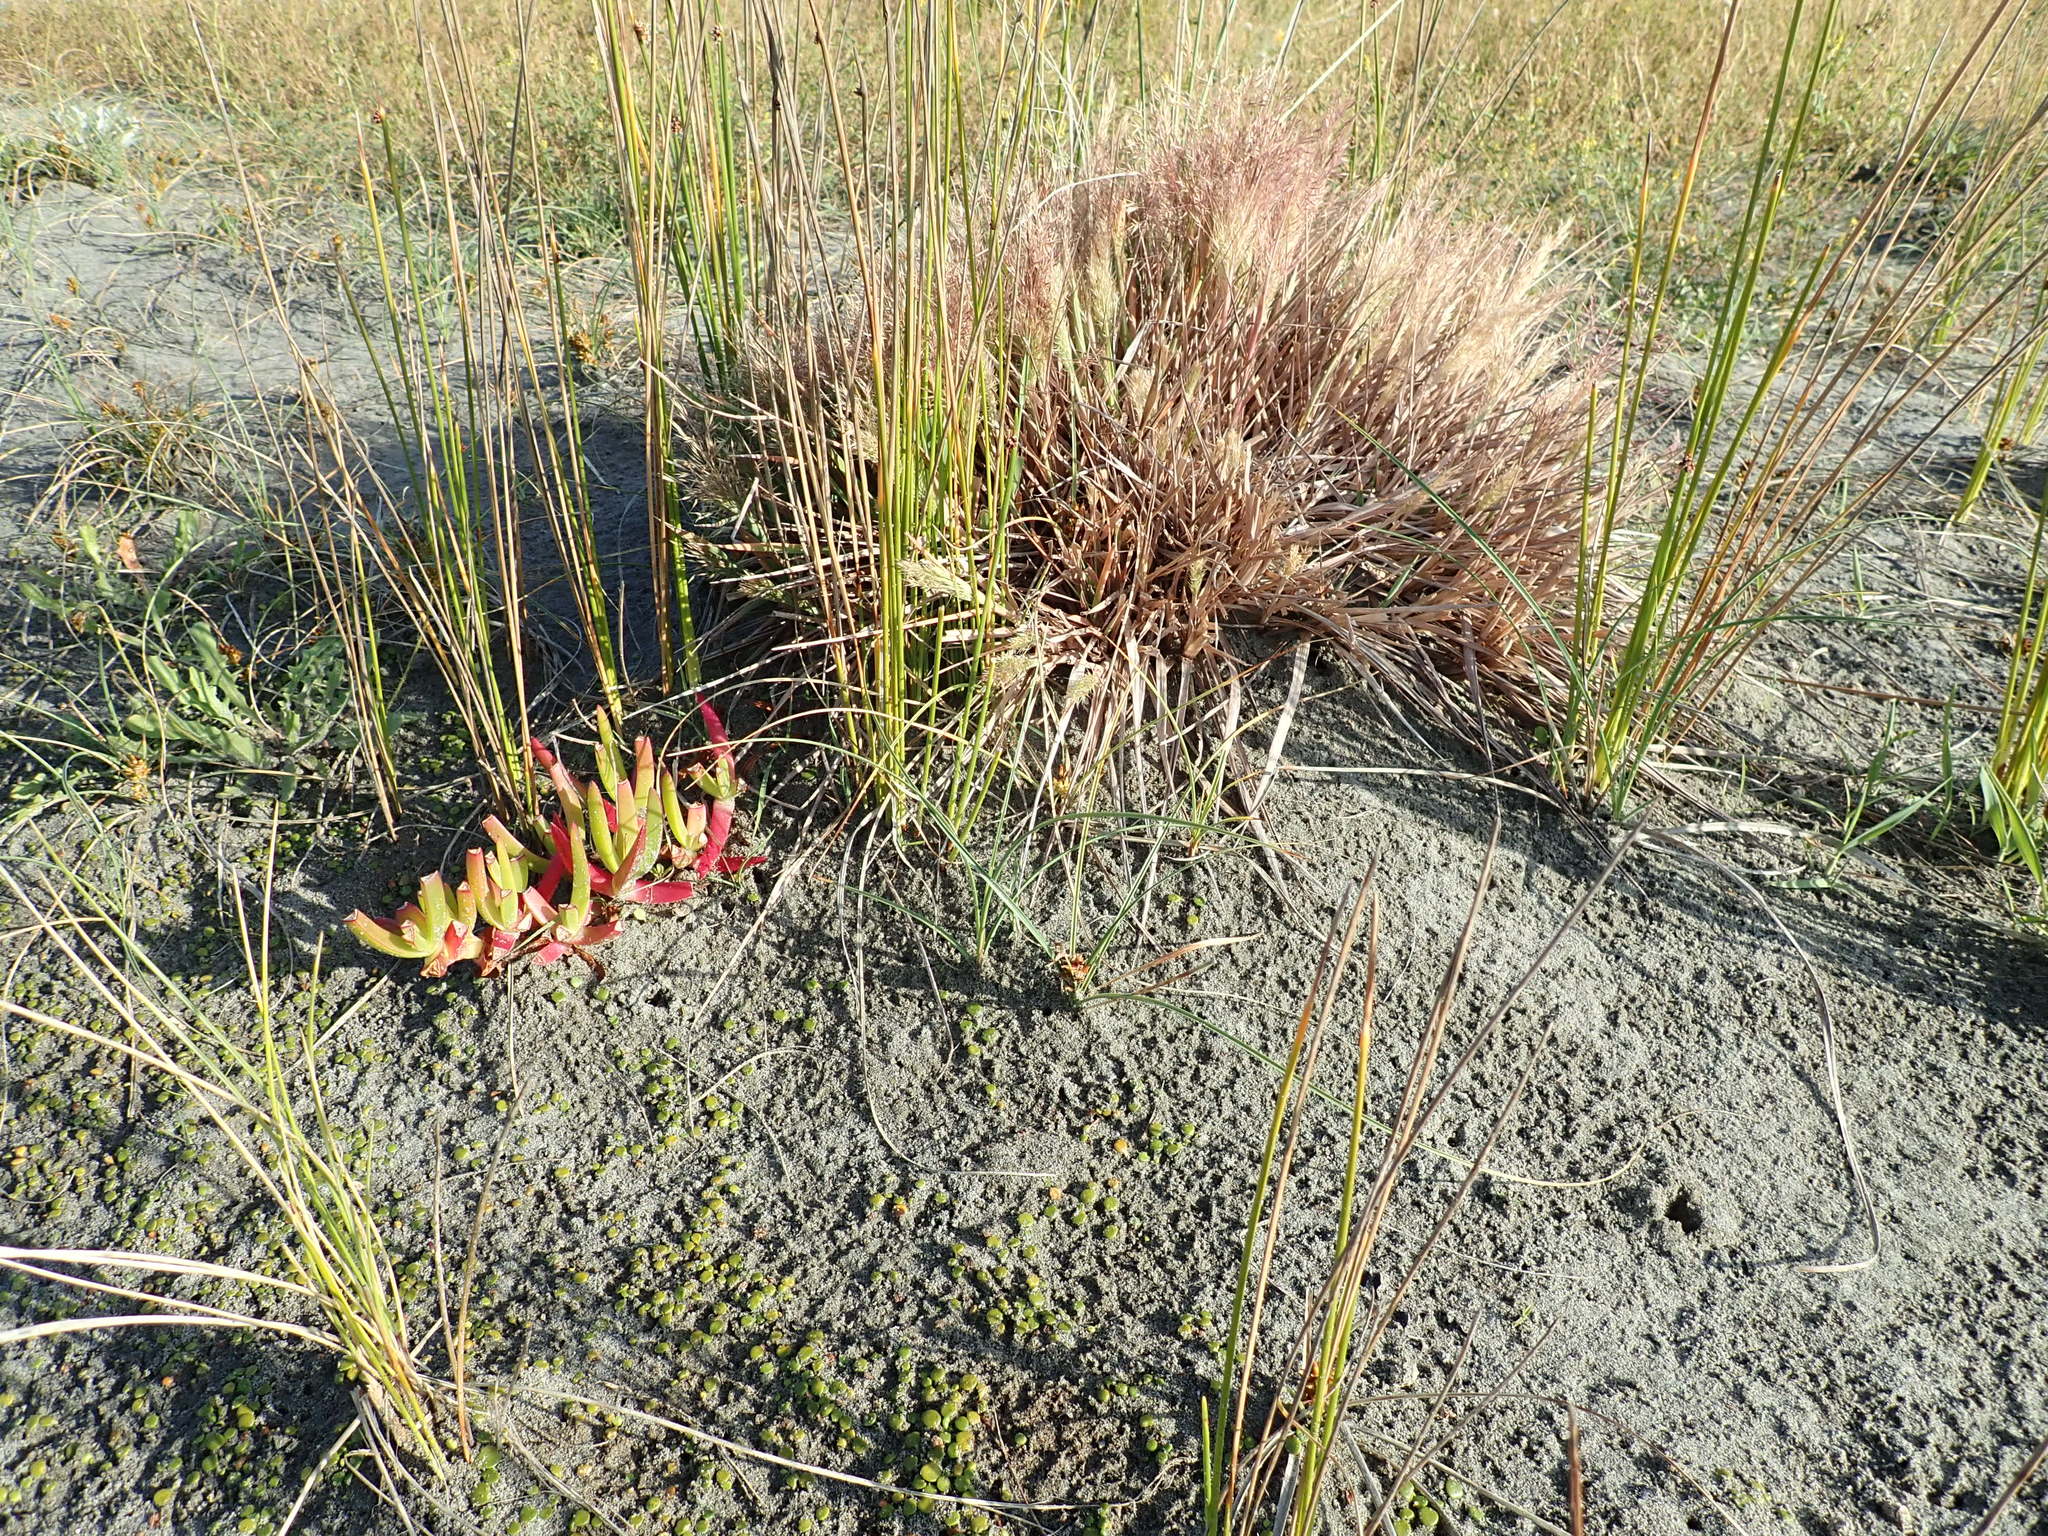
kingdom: Plantae
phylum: Tracheophyta
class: Liliopsida
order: Poales
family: Poaceae
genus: Lachnagrostis
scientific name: Lachnagrostis billardierei
